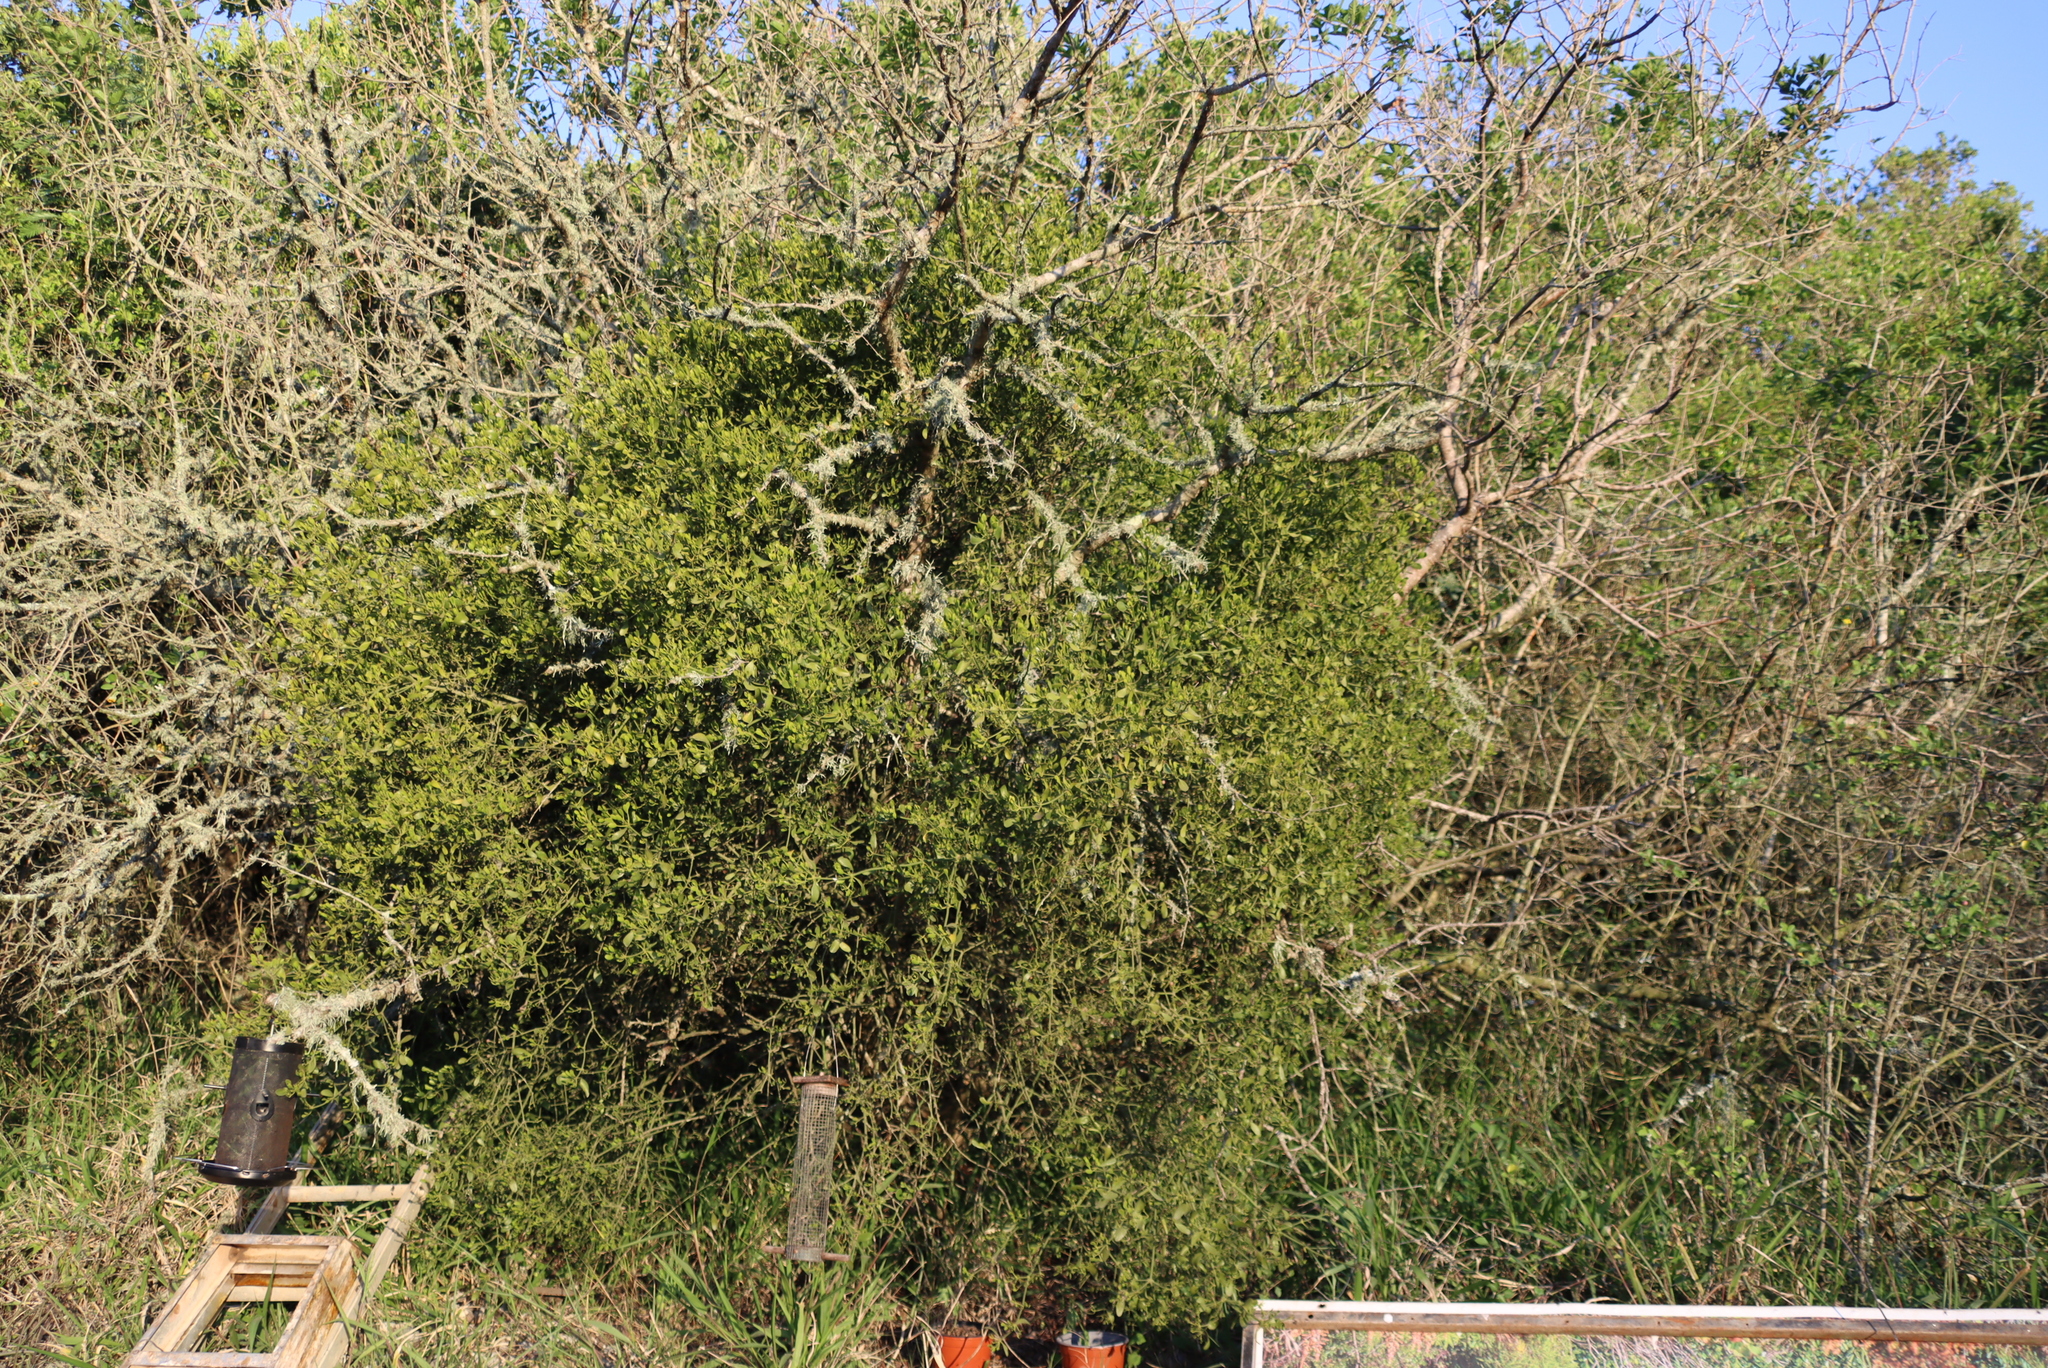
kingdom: Plantae
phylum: Tracheophyta
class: Magnoliopsida
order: Santalales
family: Viscaceae
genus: Viscum
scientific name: Viscum rotundifolium
